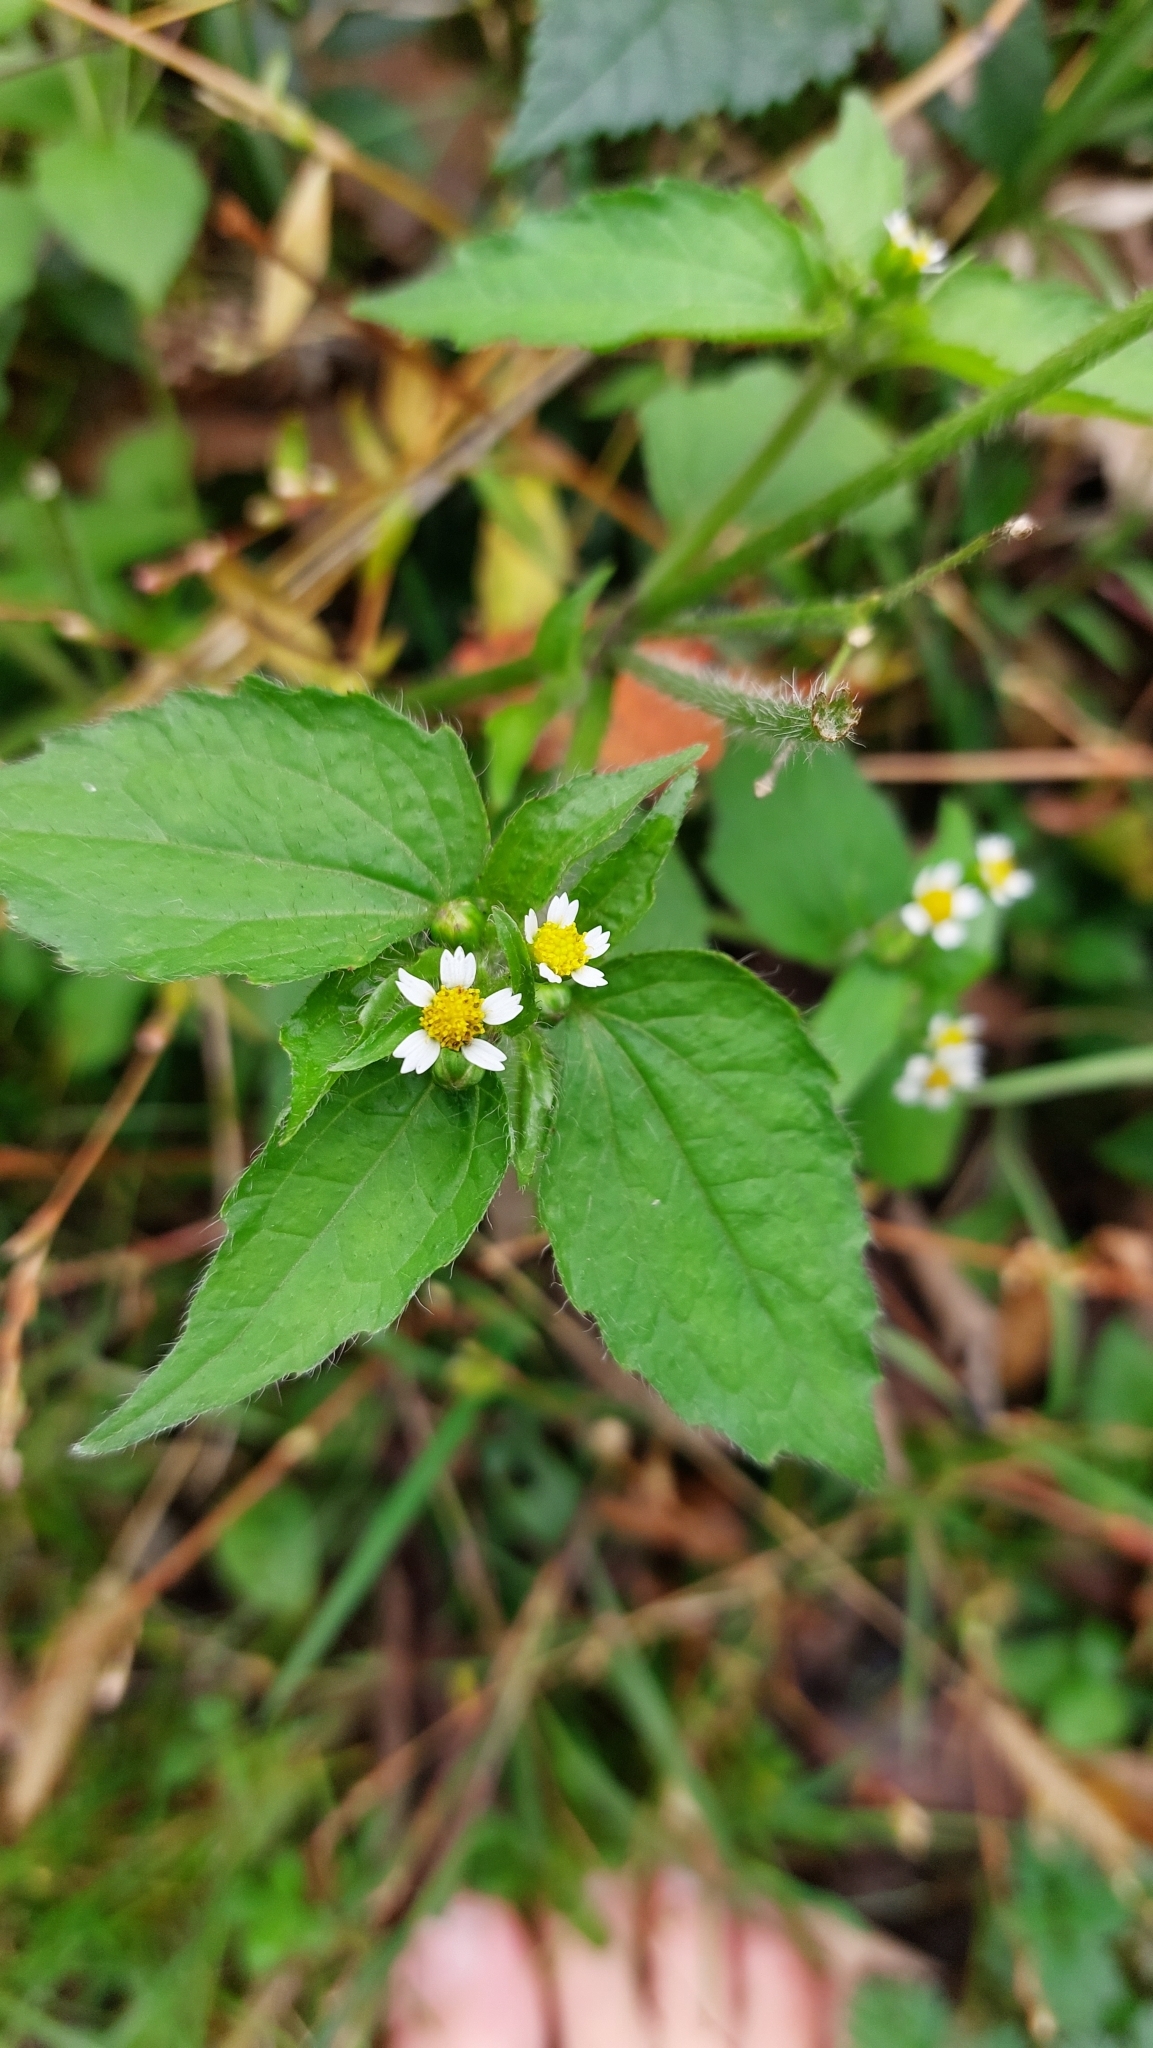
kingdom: Plantae
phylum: Tracheophyta
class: Magnoliopsida
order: Asterales
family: Asteraceae
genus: Galinsoga
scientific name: Galinsoga quadriradiata
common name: Shaggy soldier
